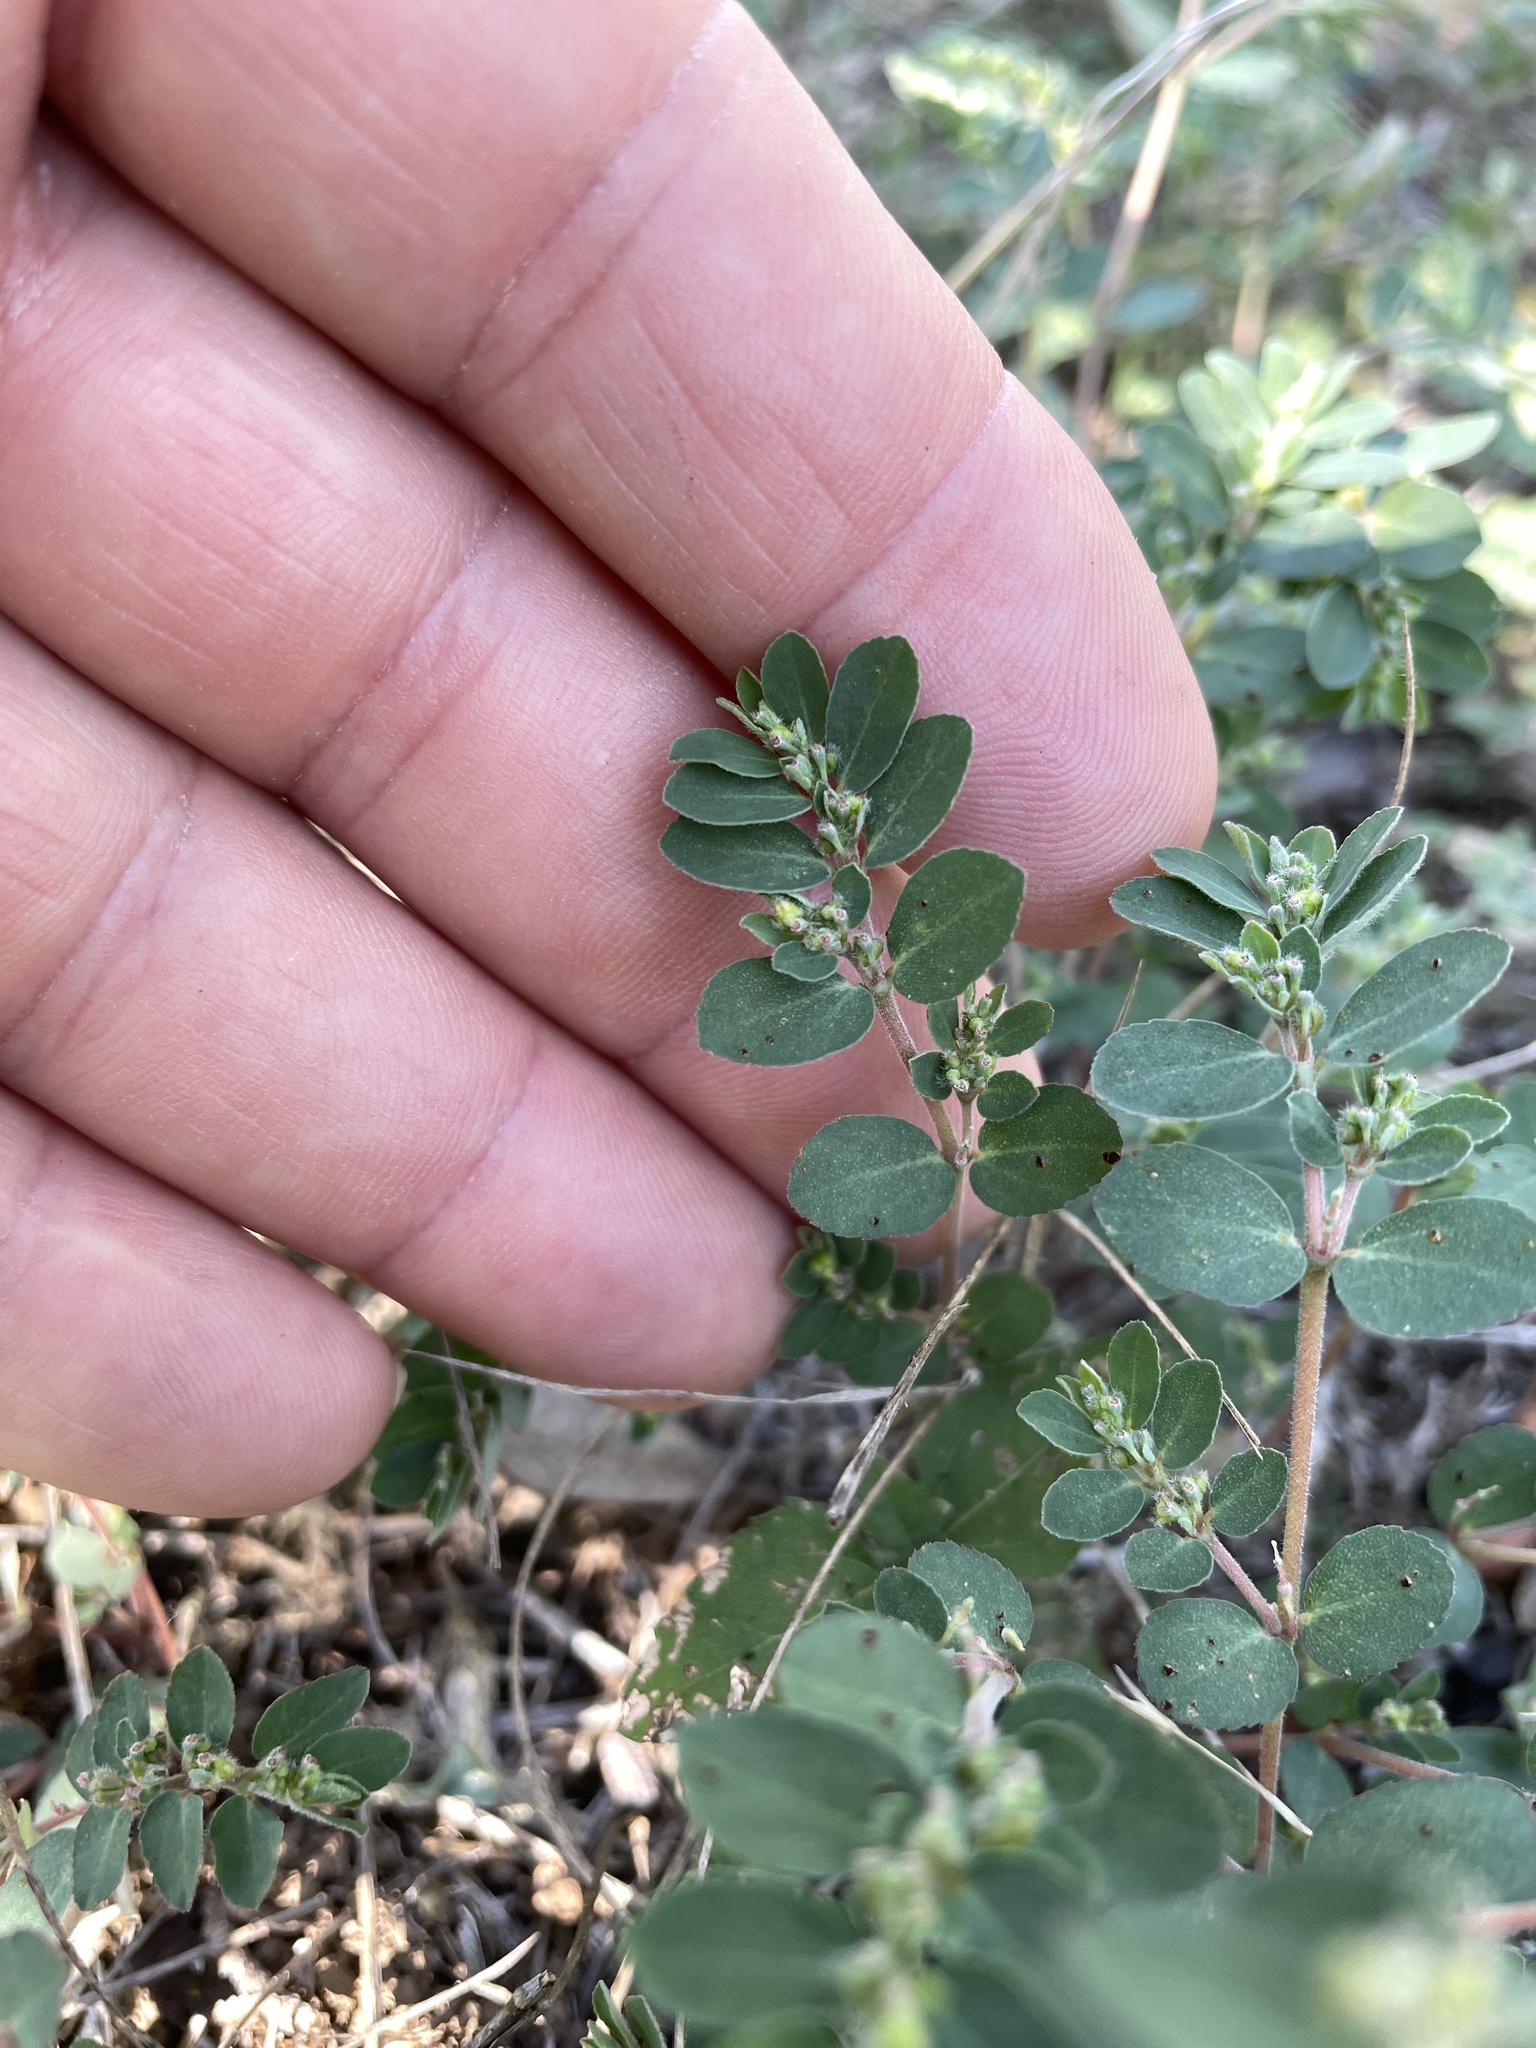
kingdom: Plantae
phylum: Tracheophyta
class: Magnoliopsida
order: Malpighiales
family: Euphorbiaceae
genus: Euphorbia
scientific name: Euphorbia prostrata
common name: Prostrate sandmat
